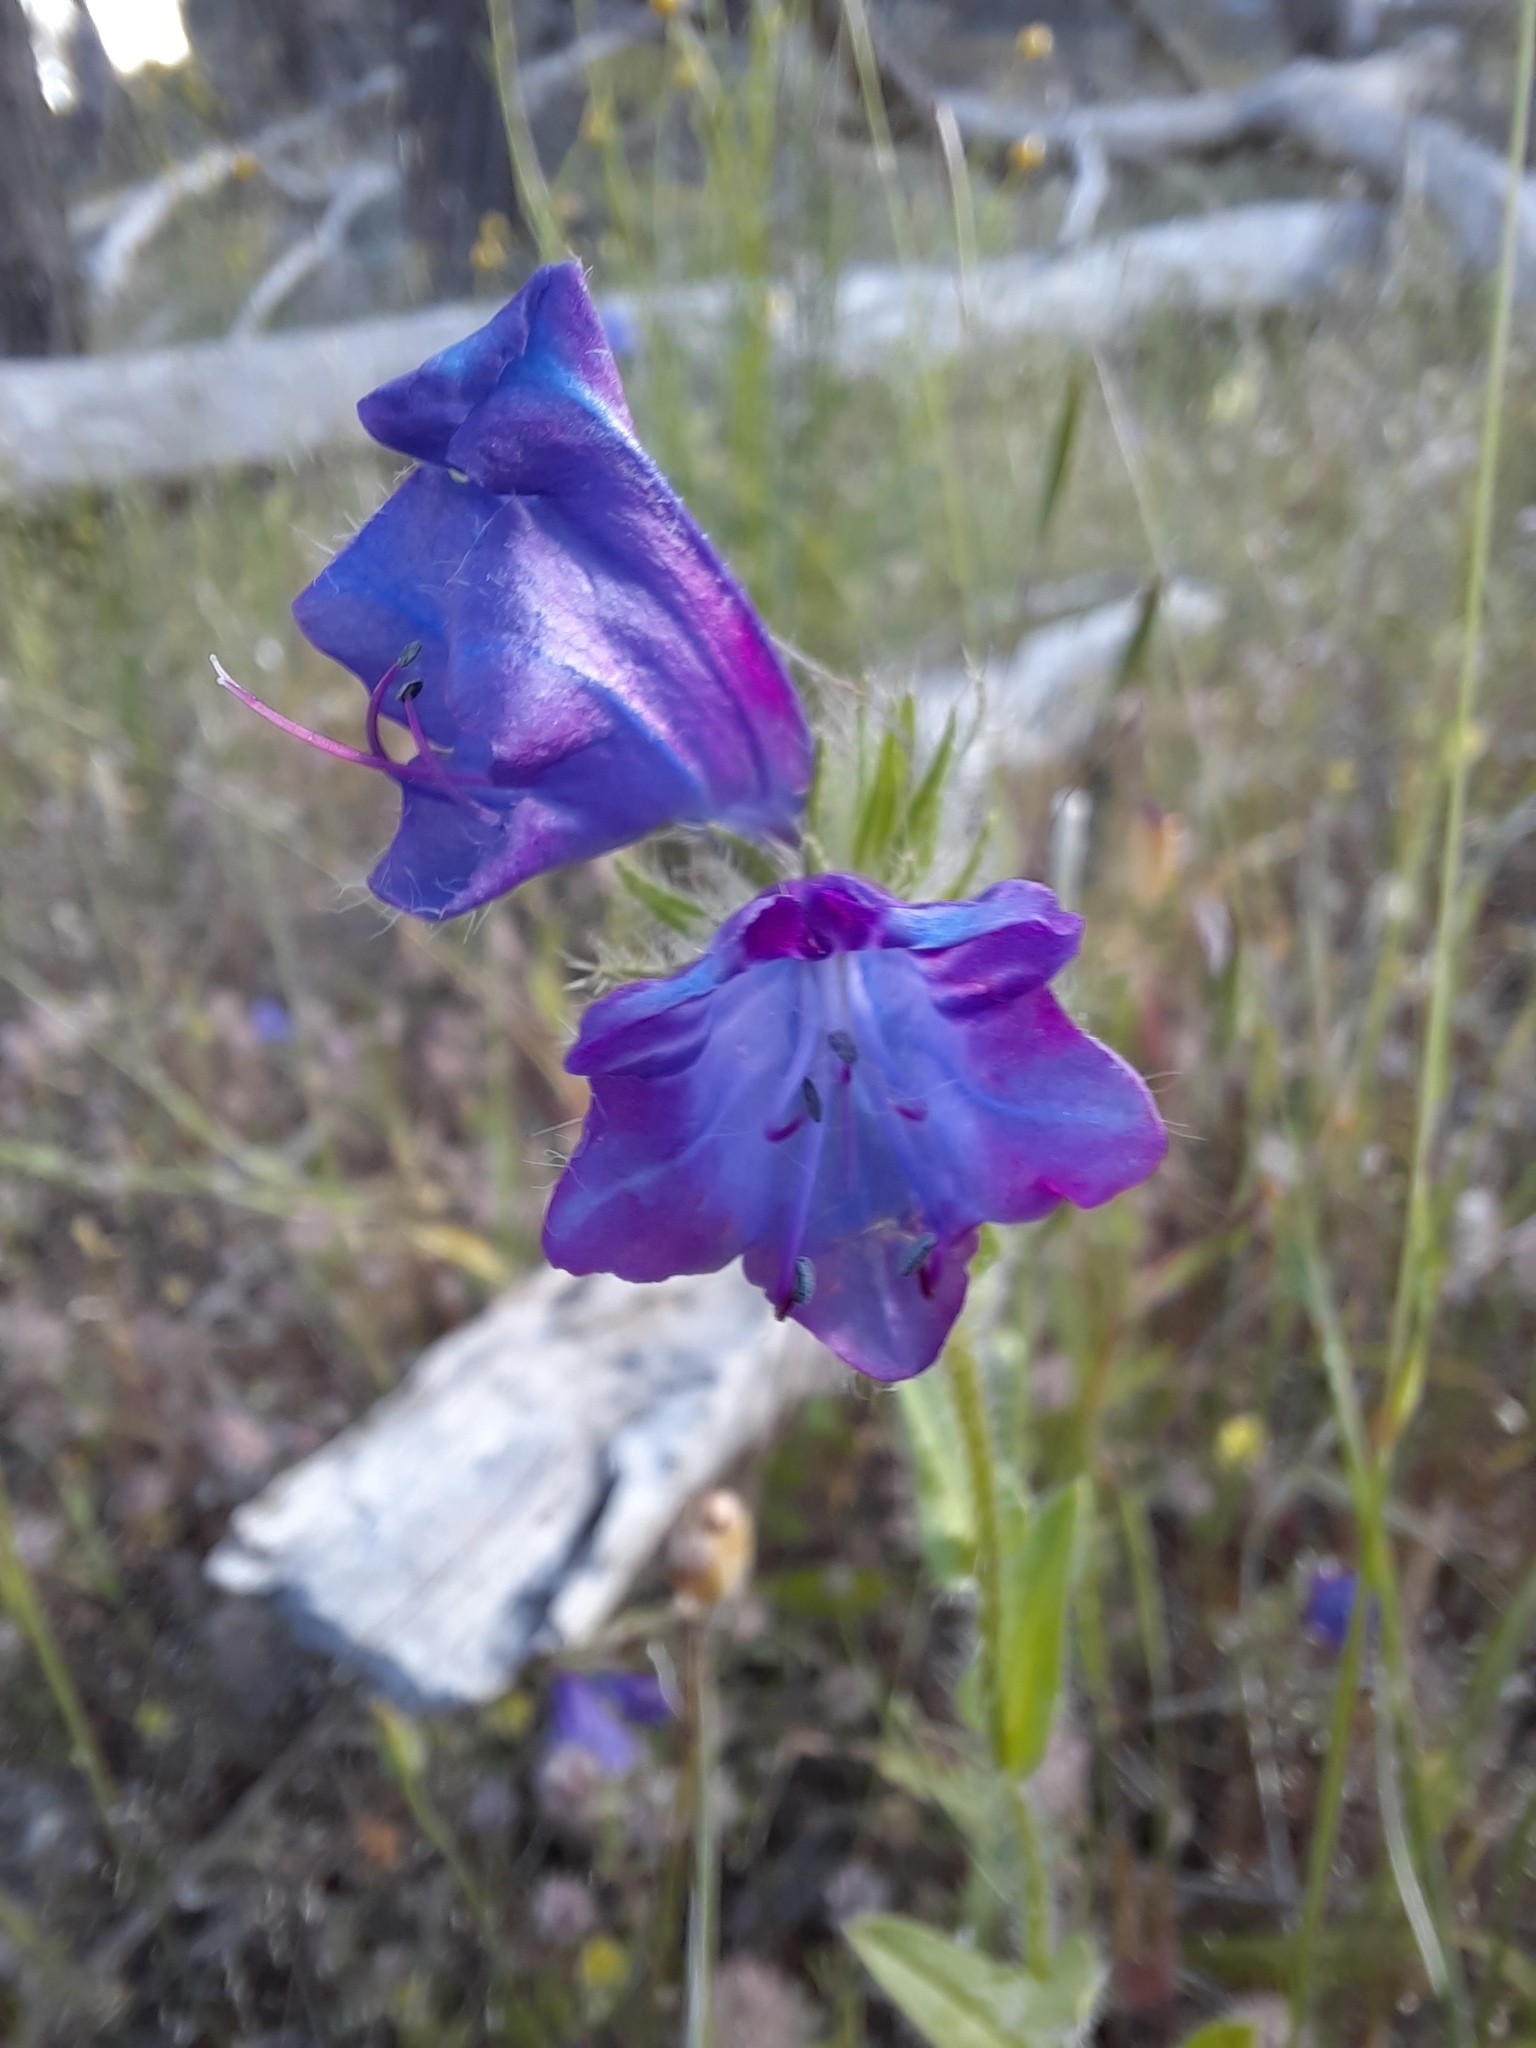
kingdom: Plantae
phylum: Tracheophyta
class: Magnoliopsida
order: Boraginales
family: Boraginaceae
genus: Echium
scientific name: Echium plantagineum
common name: Purple viper's-bugloss
